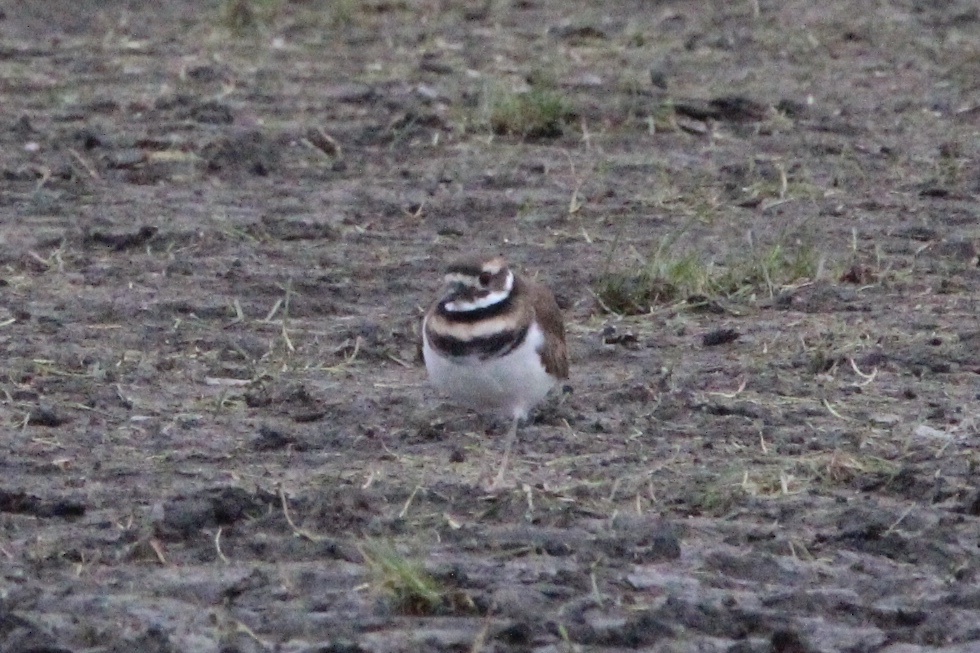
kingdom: Animalia
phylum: Chordata
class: Aves
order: Charadriiformes
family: Charadriidae
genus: Charadrius
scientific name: Charadrius vociferus
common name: Killdeer
